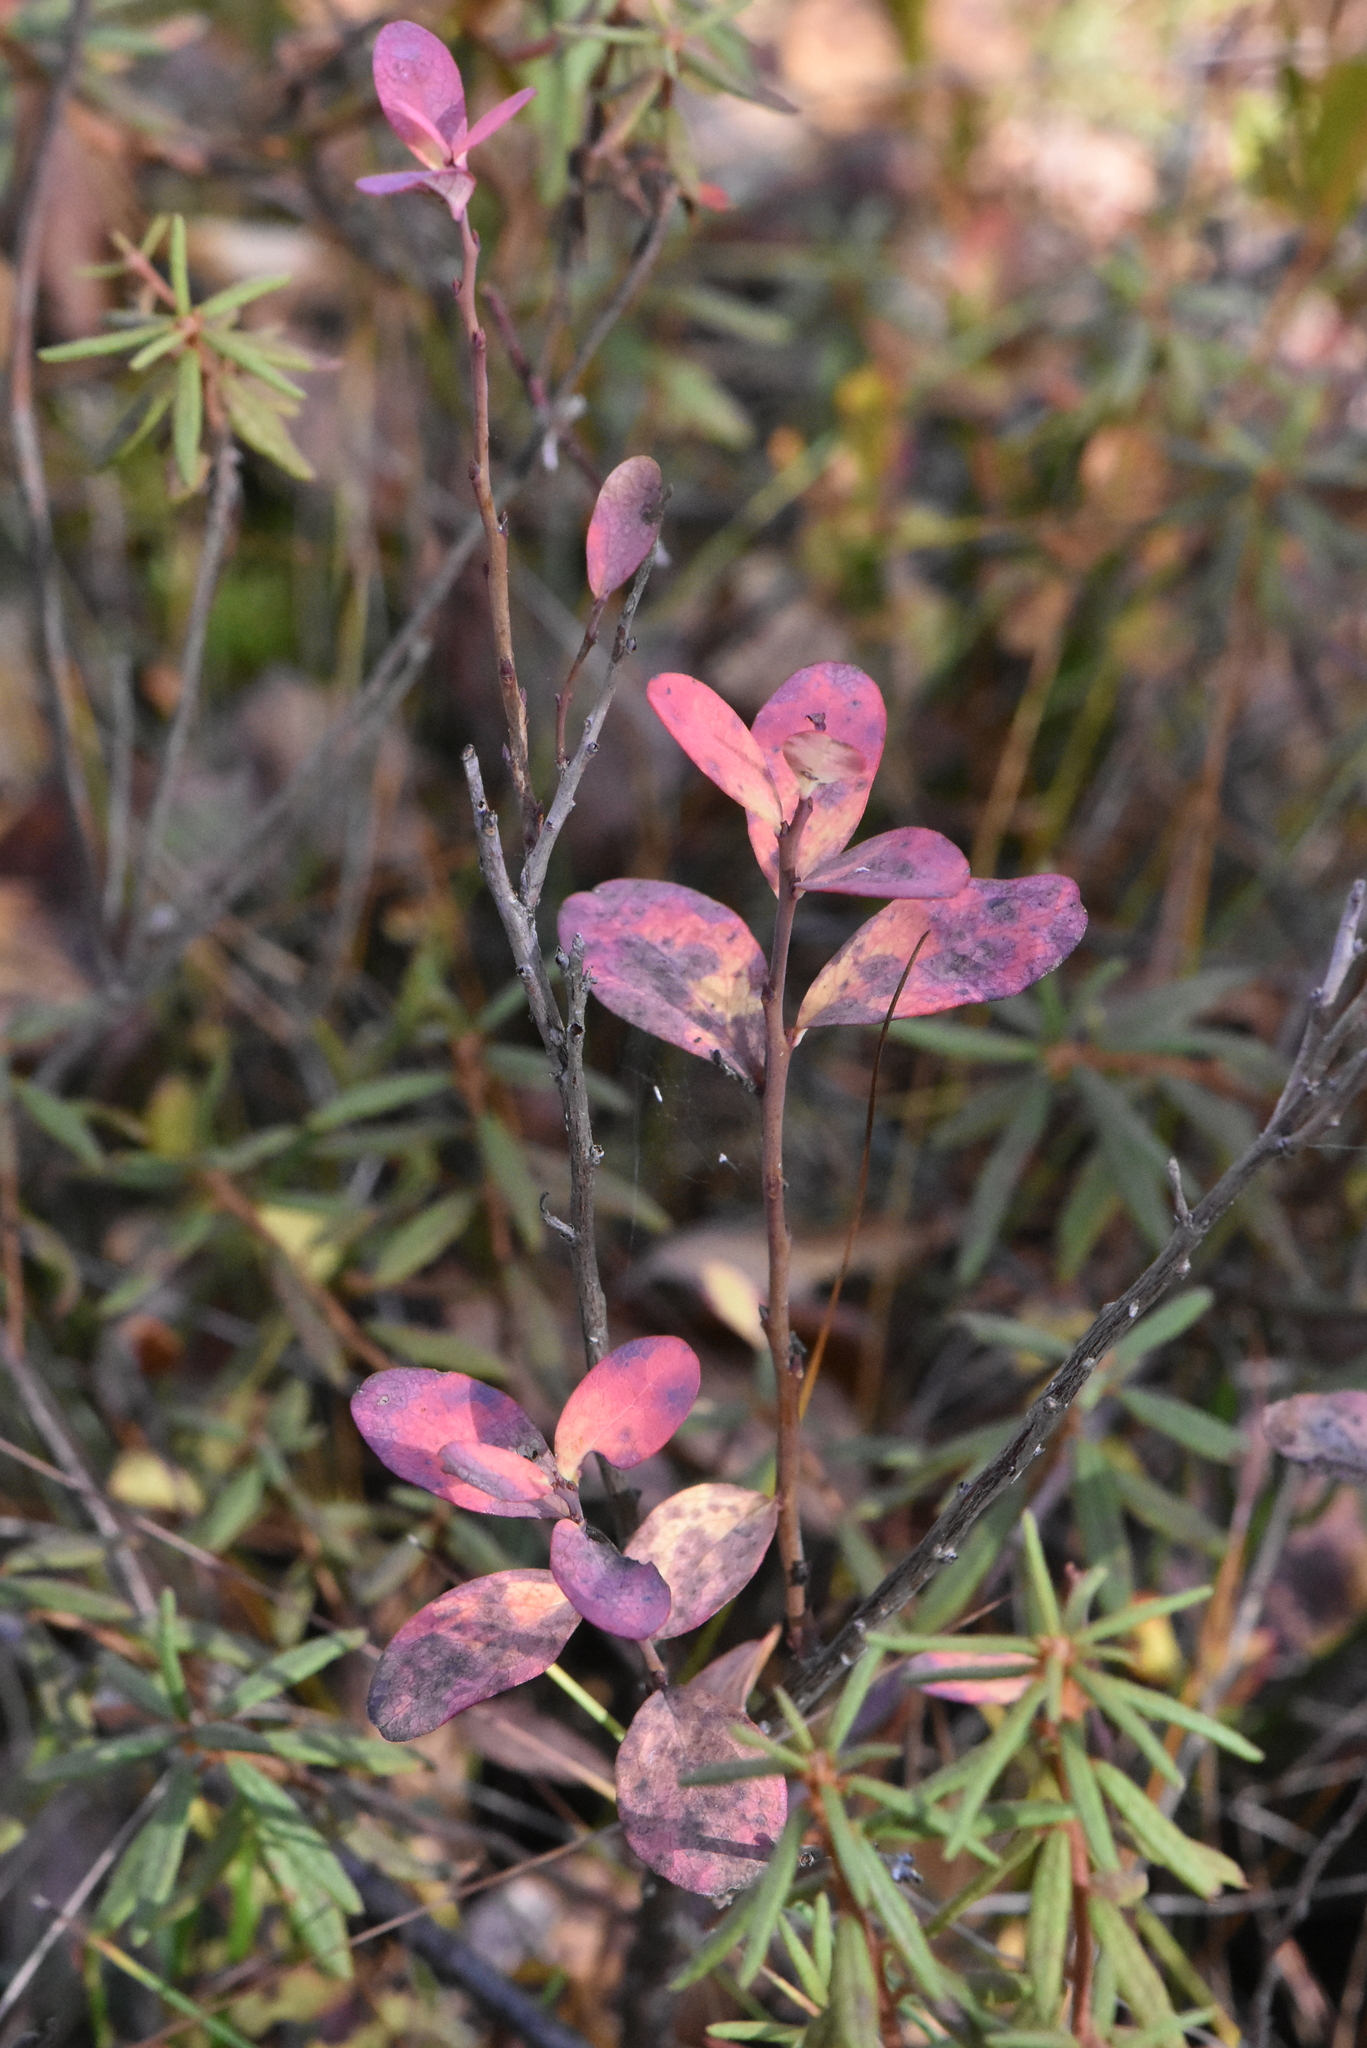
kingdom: Plantae
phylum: Tracheophyta
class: Magnoliopsida
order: Ericales
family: Ericaceae
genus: Vaccinium
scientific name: Vaccinium uliginosum
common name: Bog bilberry
